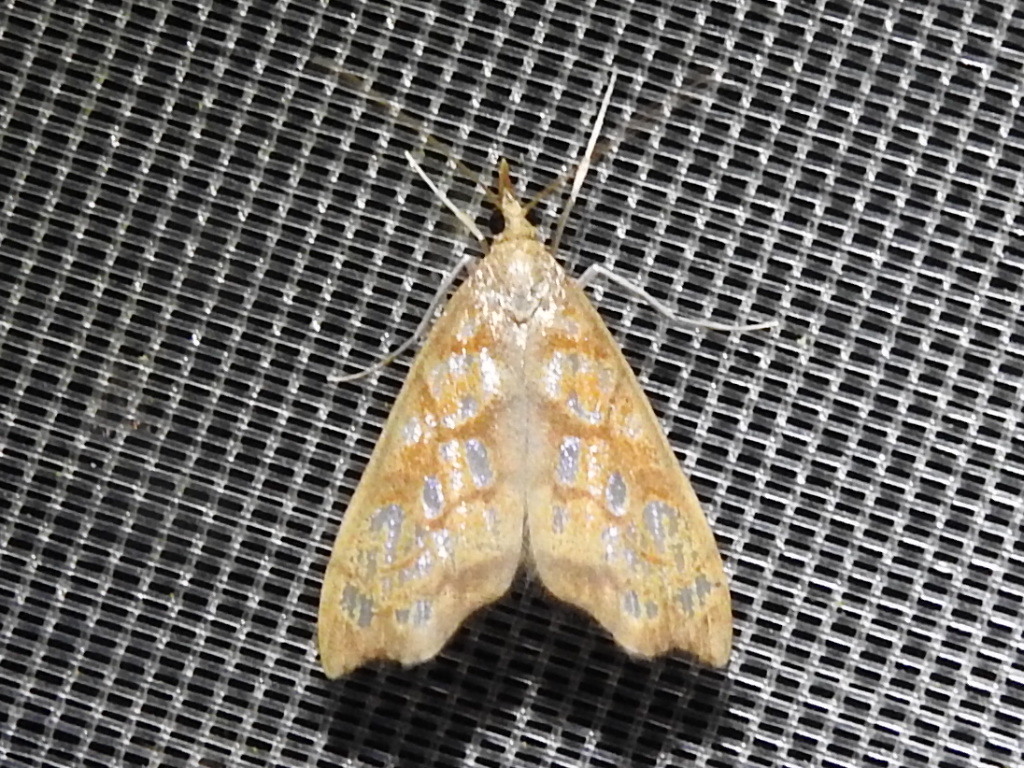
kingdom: Animalia
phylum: Arthropoda
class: Insecta
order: Lepidoptera
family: Crambidae
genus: Hydropionea
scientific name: Hydropionea fenestralis
